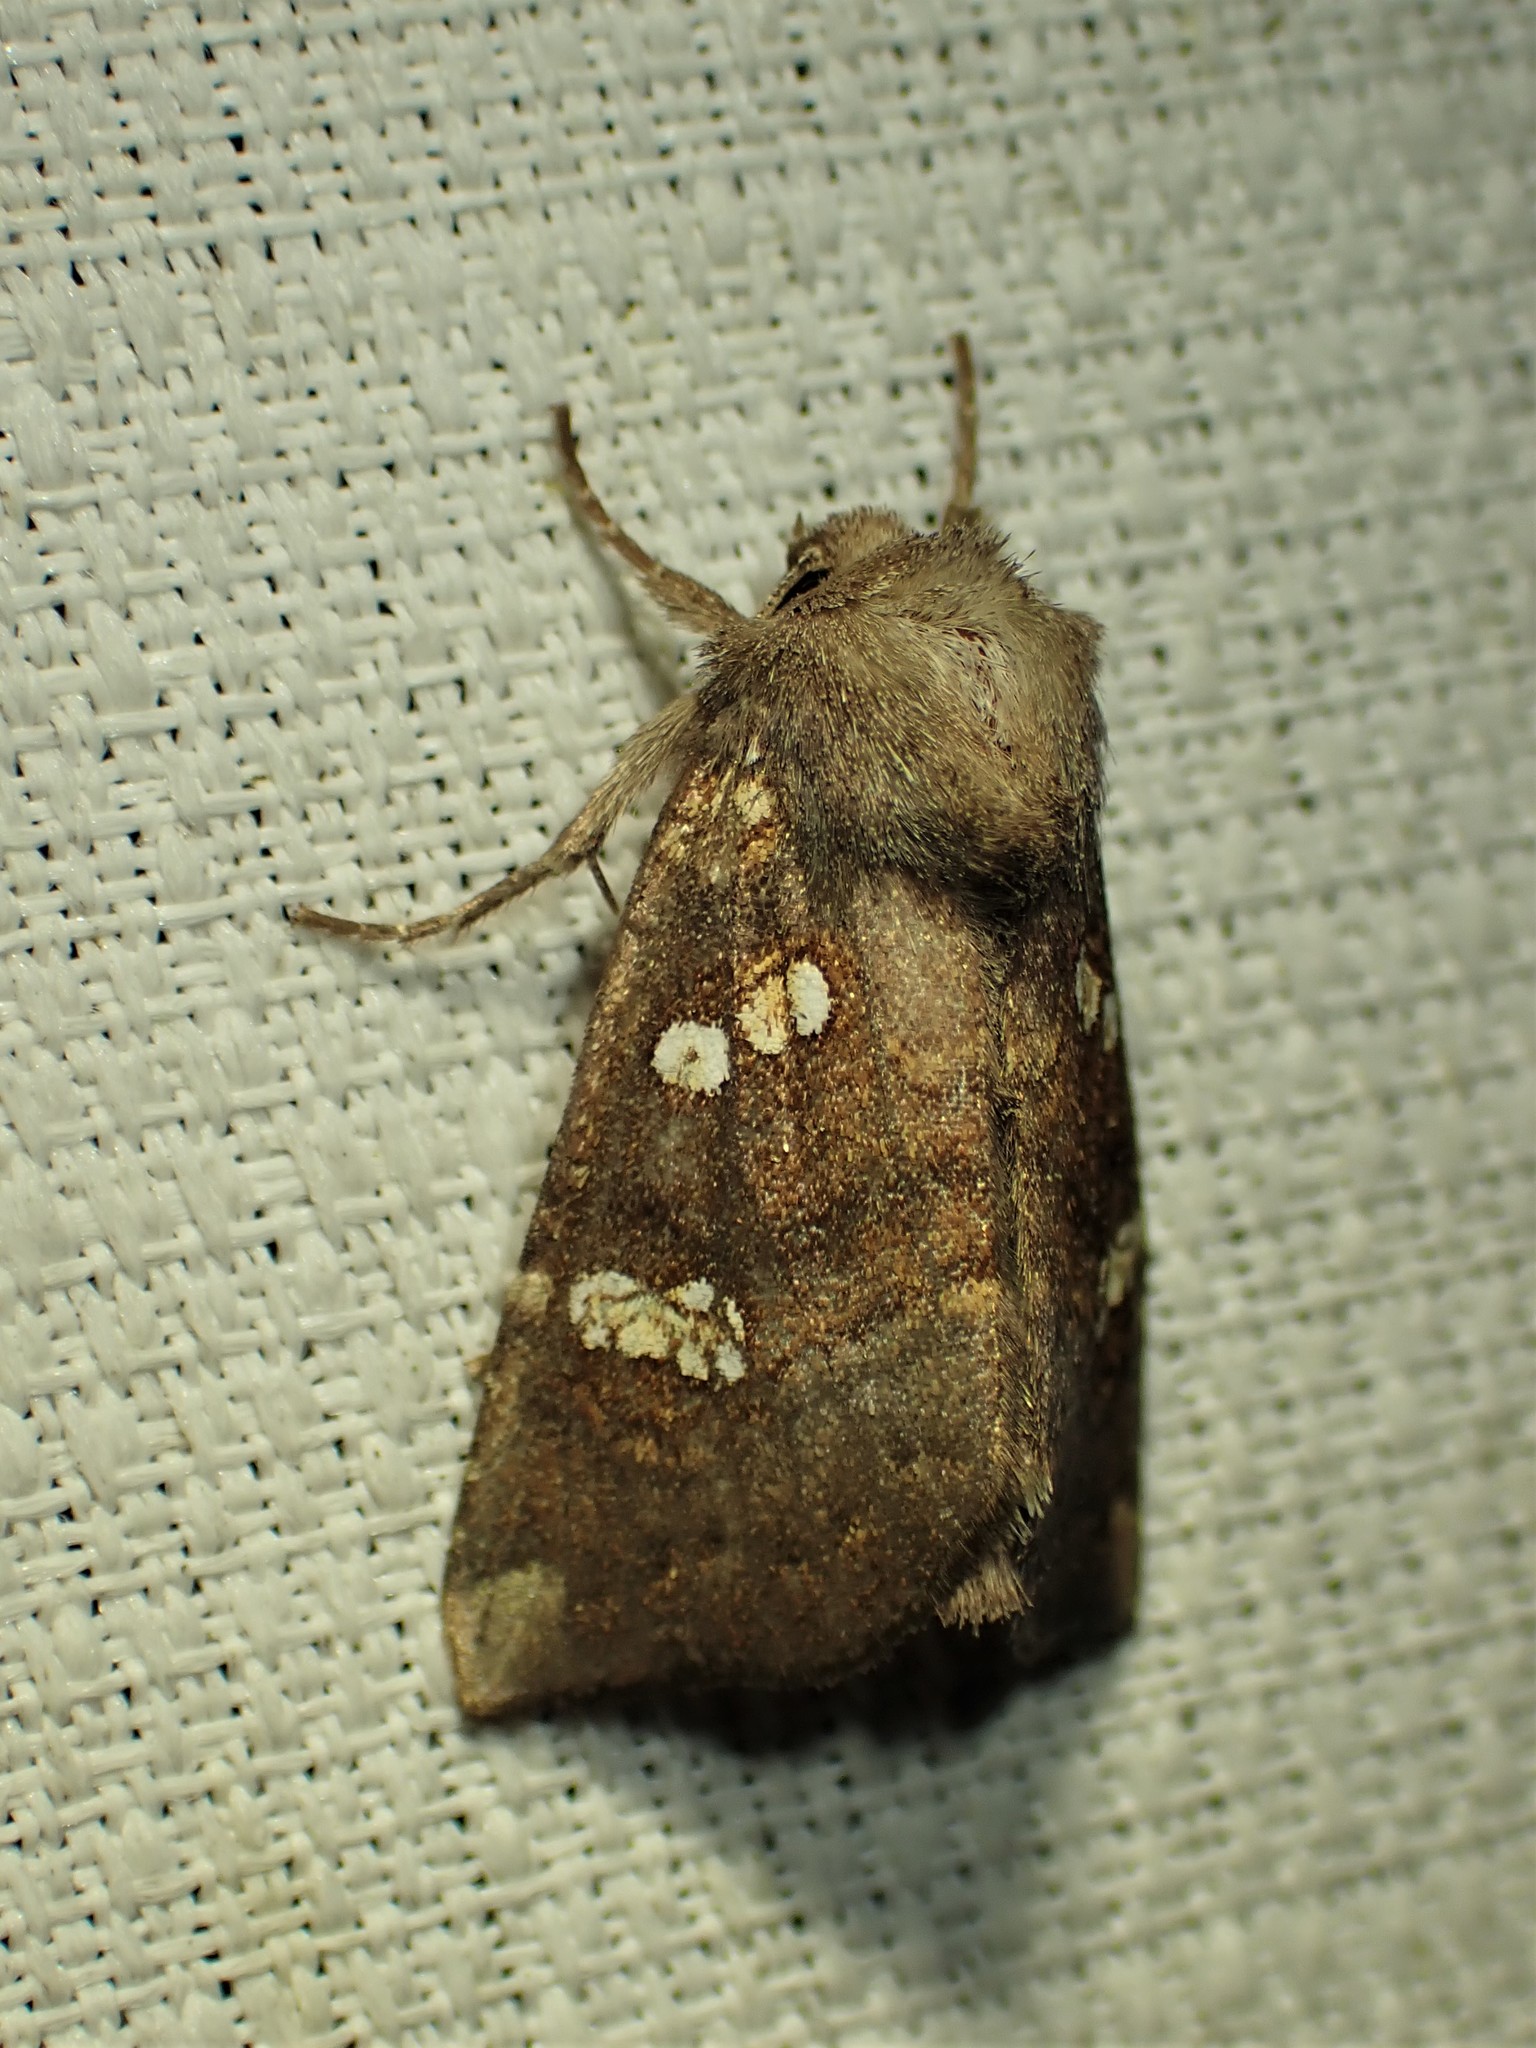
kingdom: Animalia
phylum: Arthropoda
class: Insecta
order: Lepidoptera
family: Noctuidae
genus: Papaipema
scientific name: Papaipema unimoda
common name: Meadow rue borer moth
